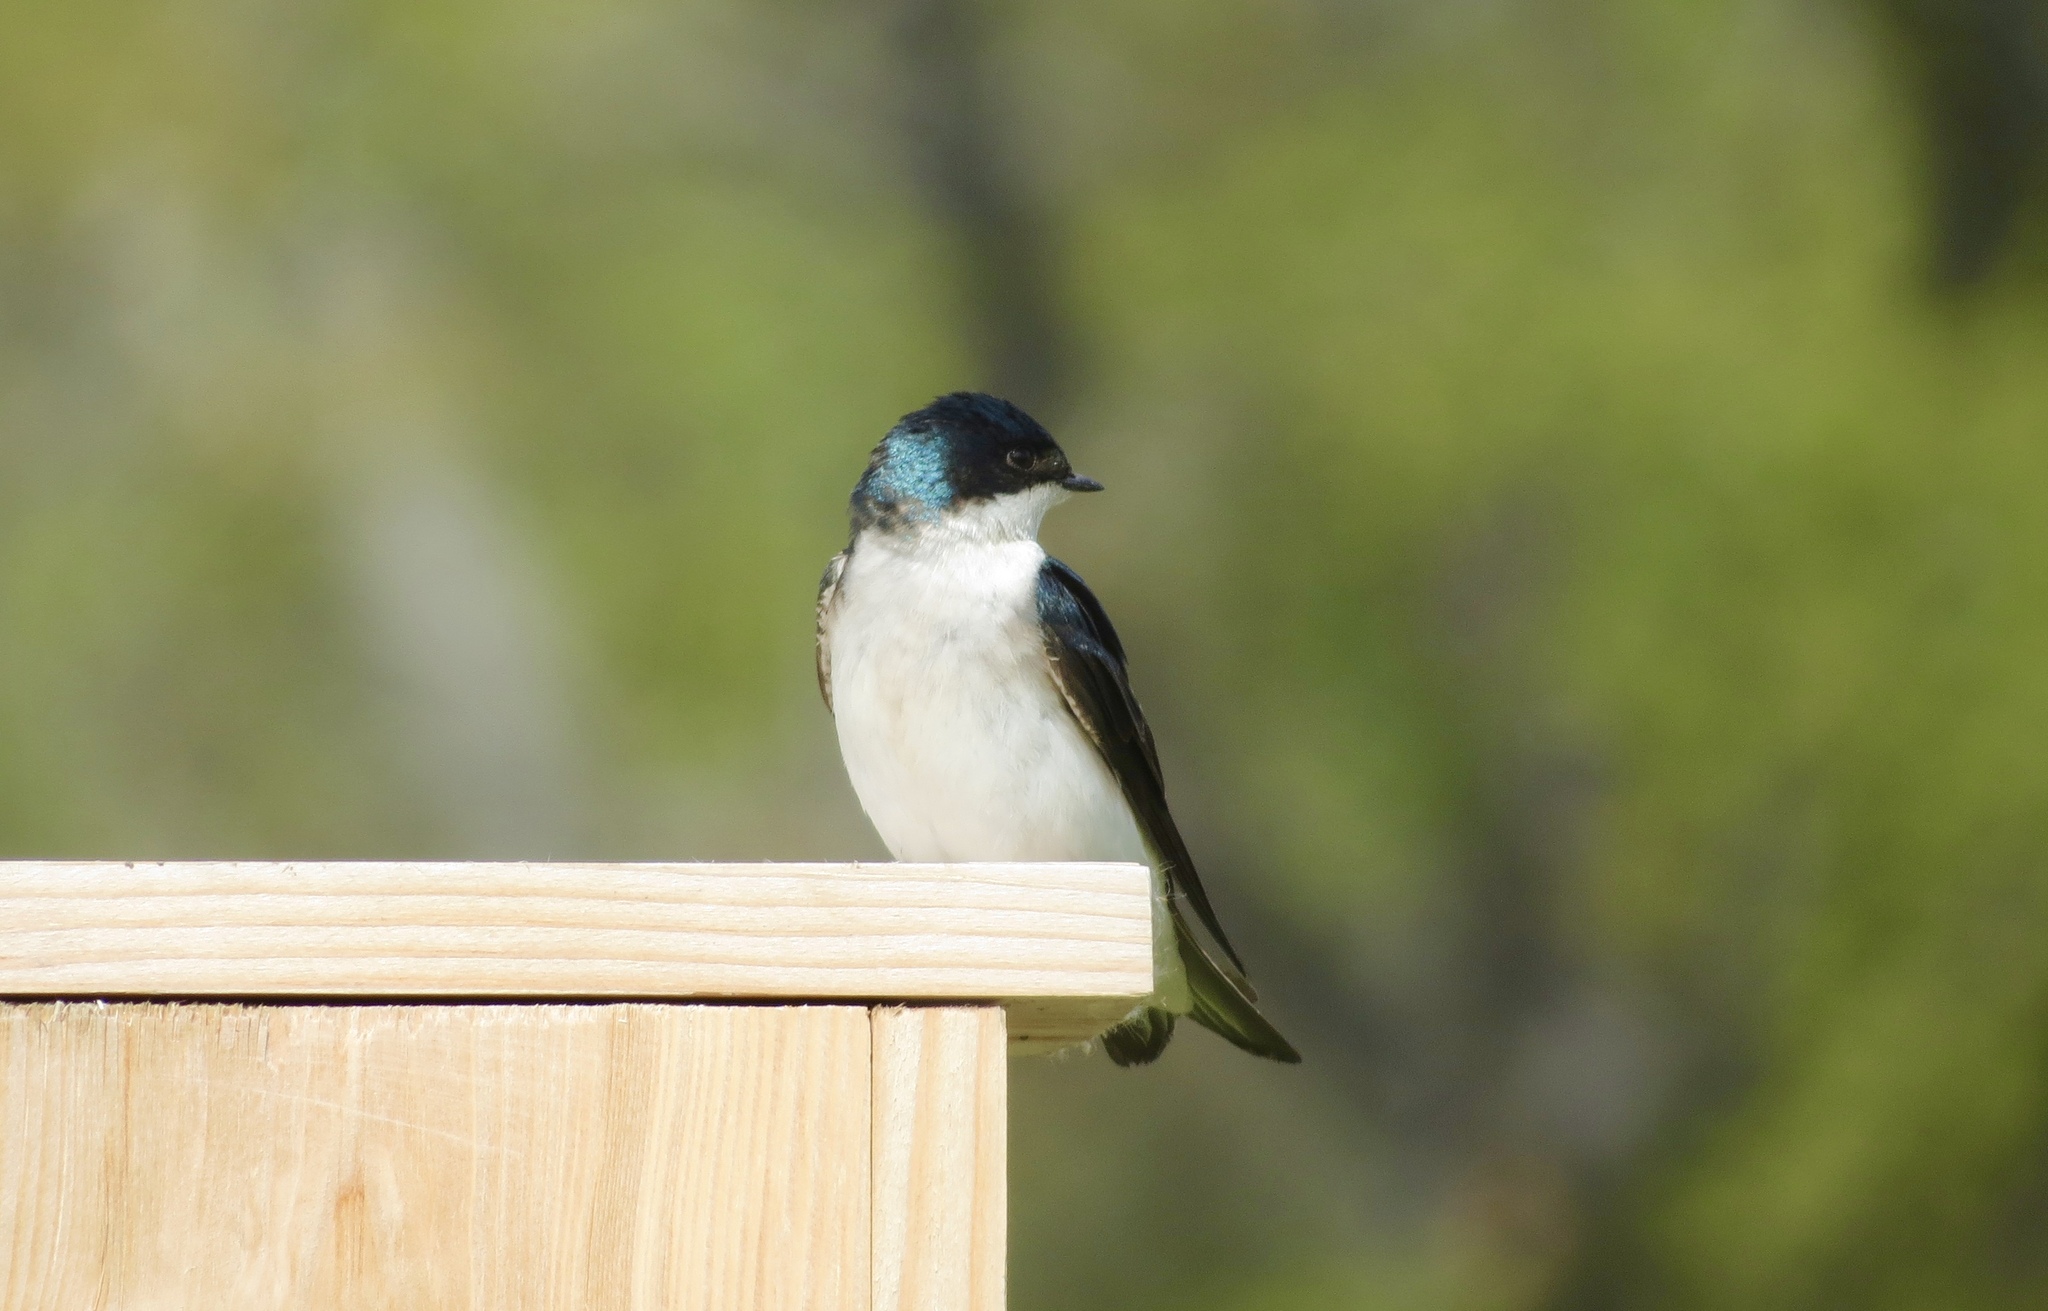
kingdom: Animalia
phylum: Chordata
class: Aves
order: Passeriformes
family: Hirundinidae
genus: Tachycineta
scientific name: Tachycineta bicolor
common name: Tree swallow
